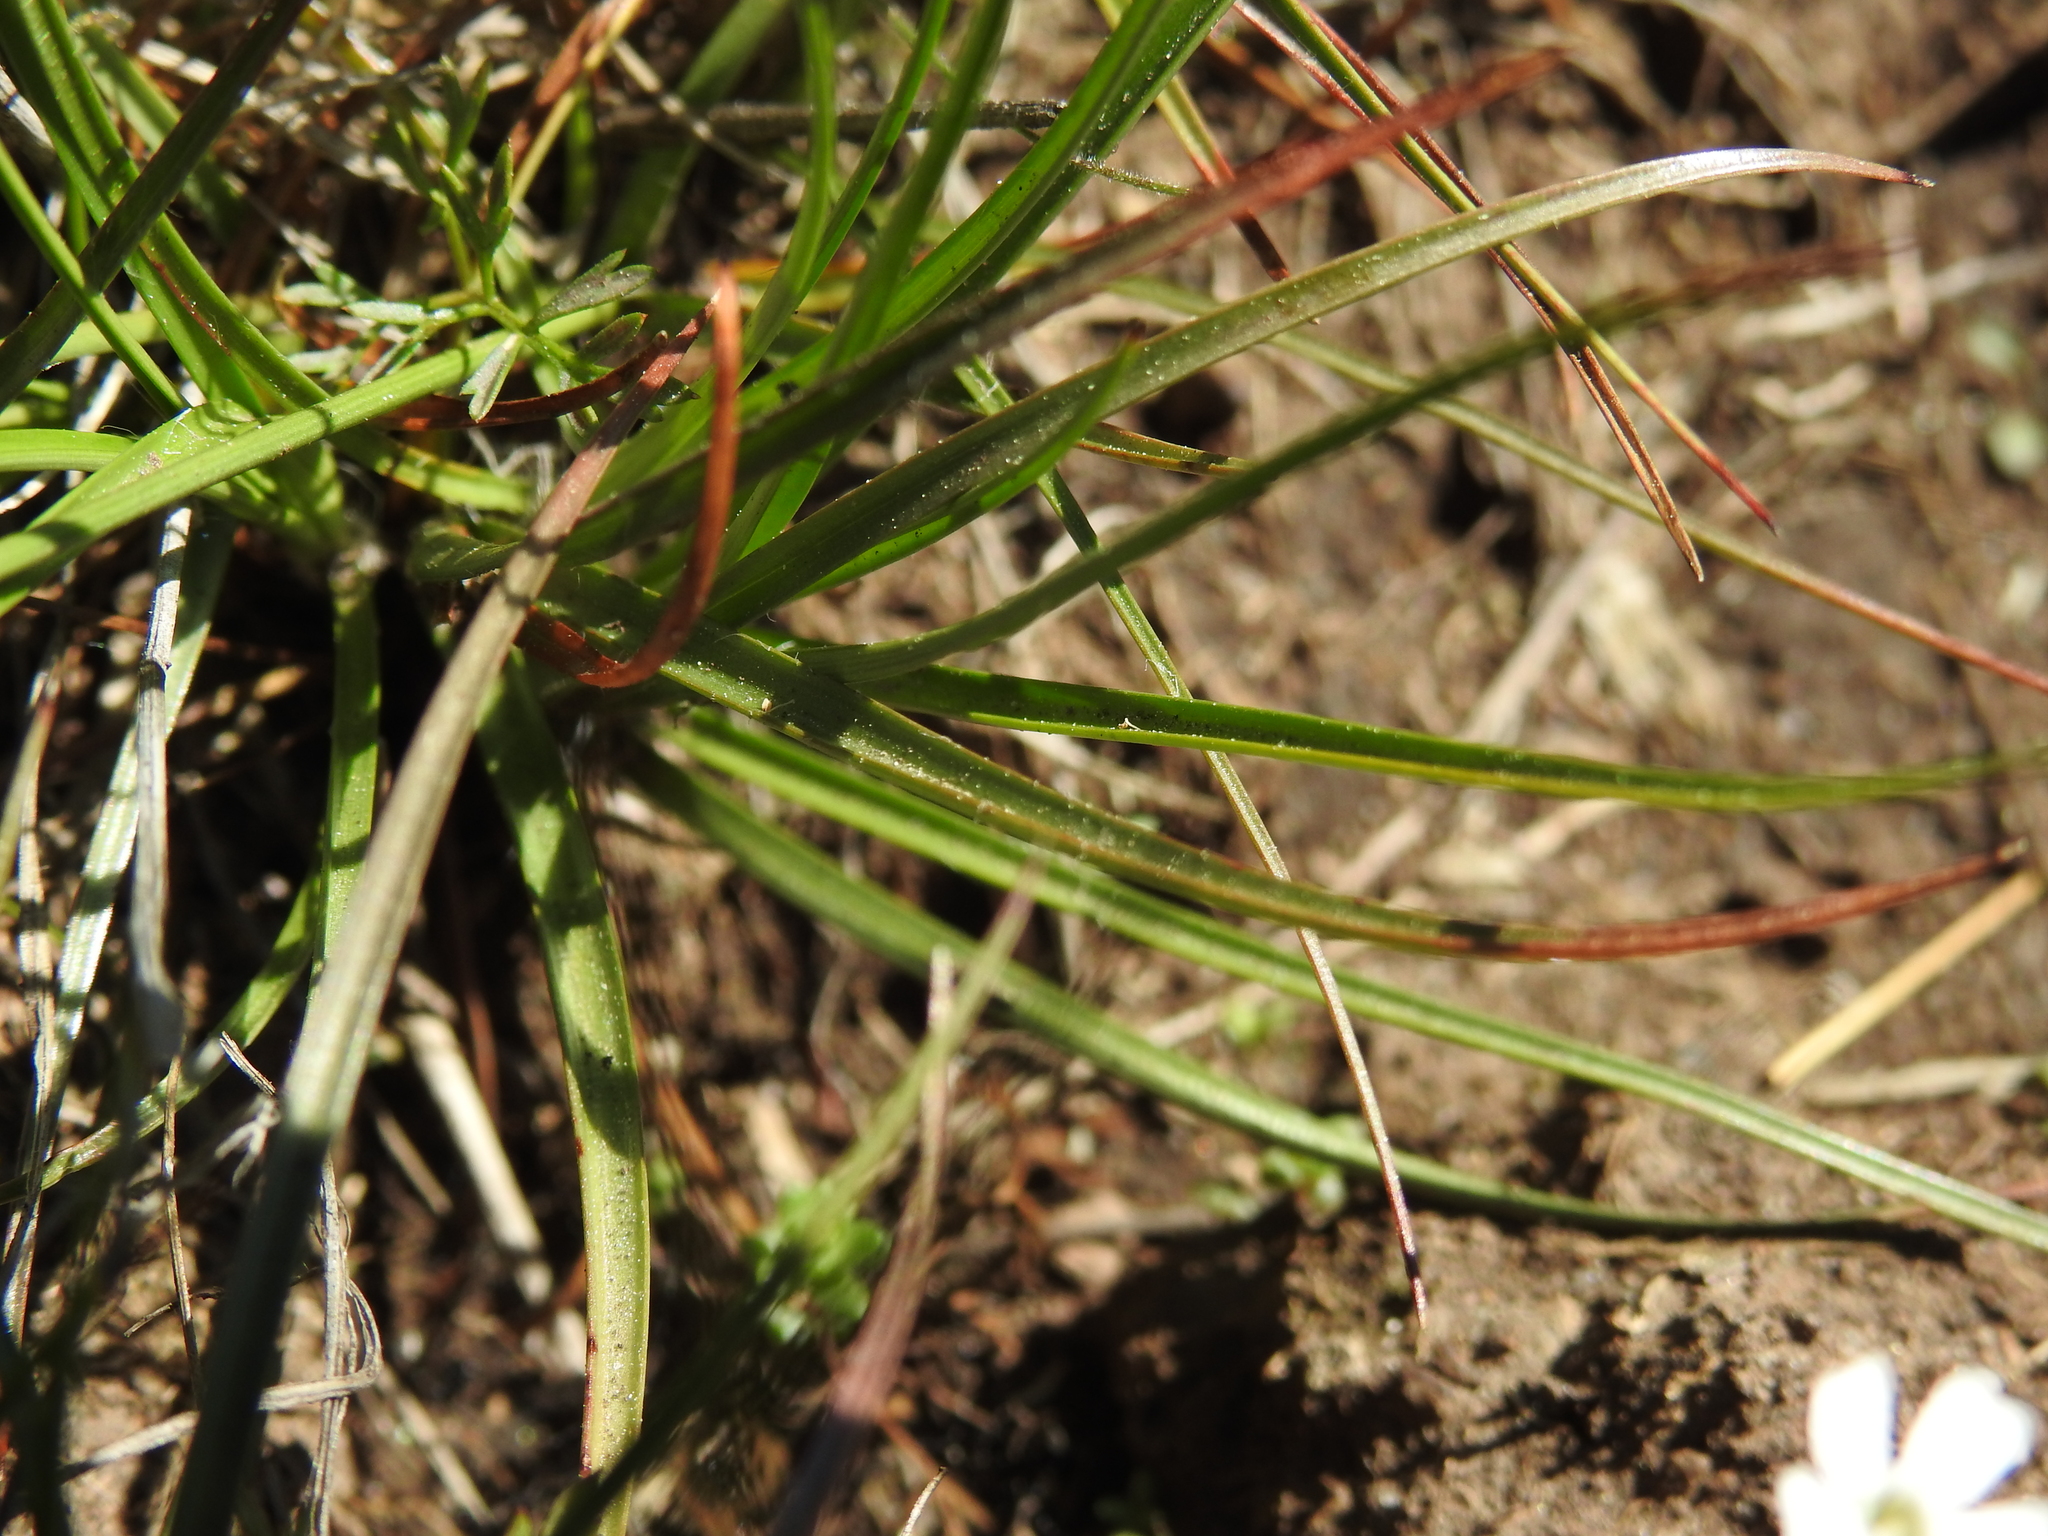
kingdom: Plantae
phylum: Tracheophyta
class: Liliopsida
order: Poales
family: Juncaceae
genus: Luzula
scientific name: Luzula spicata
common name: Spiked wood-rush
